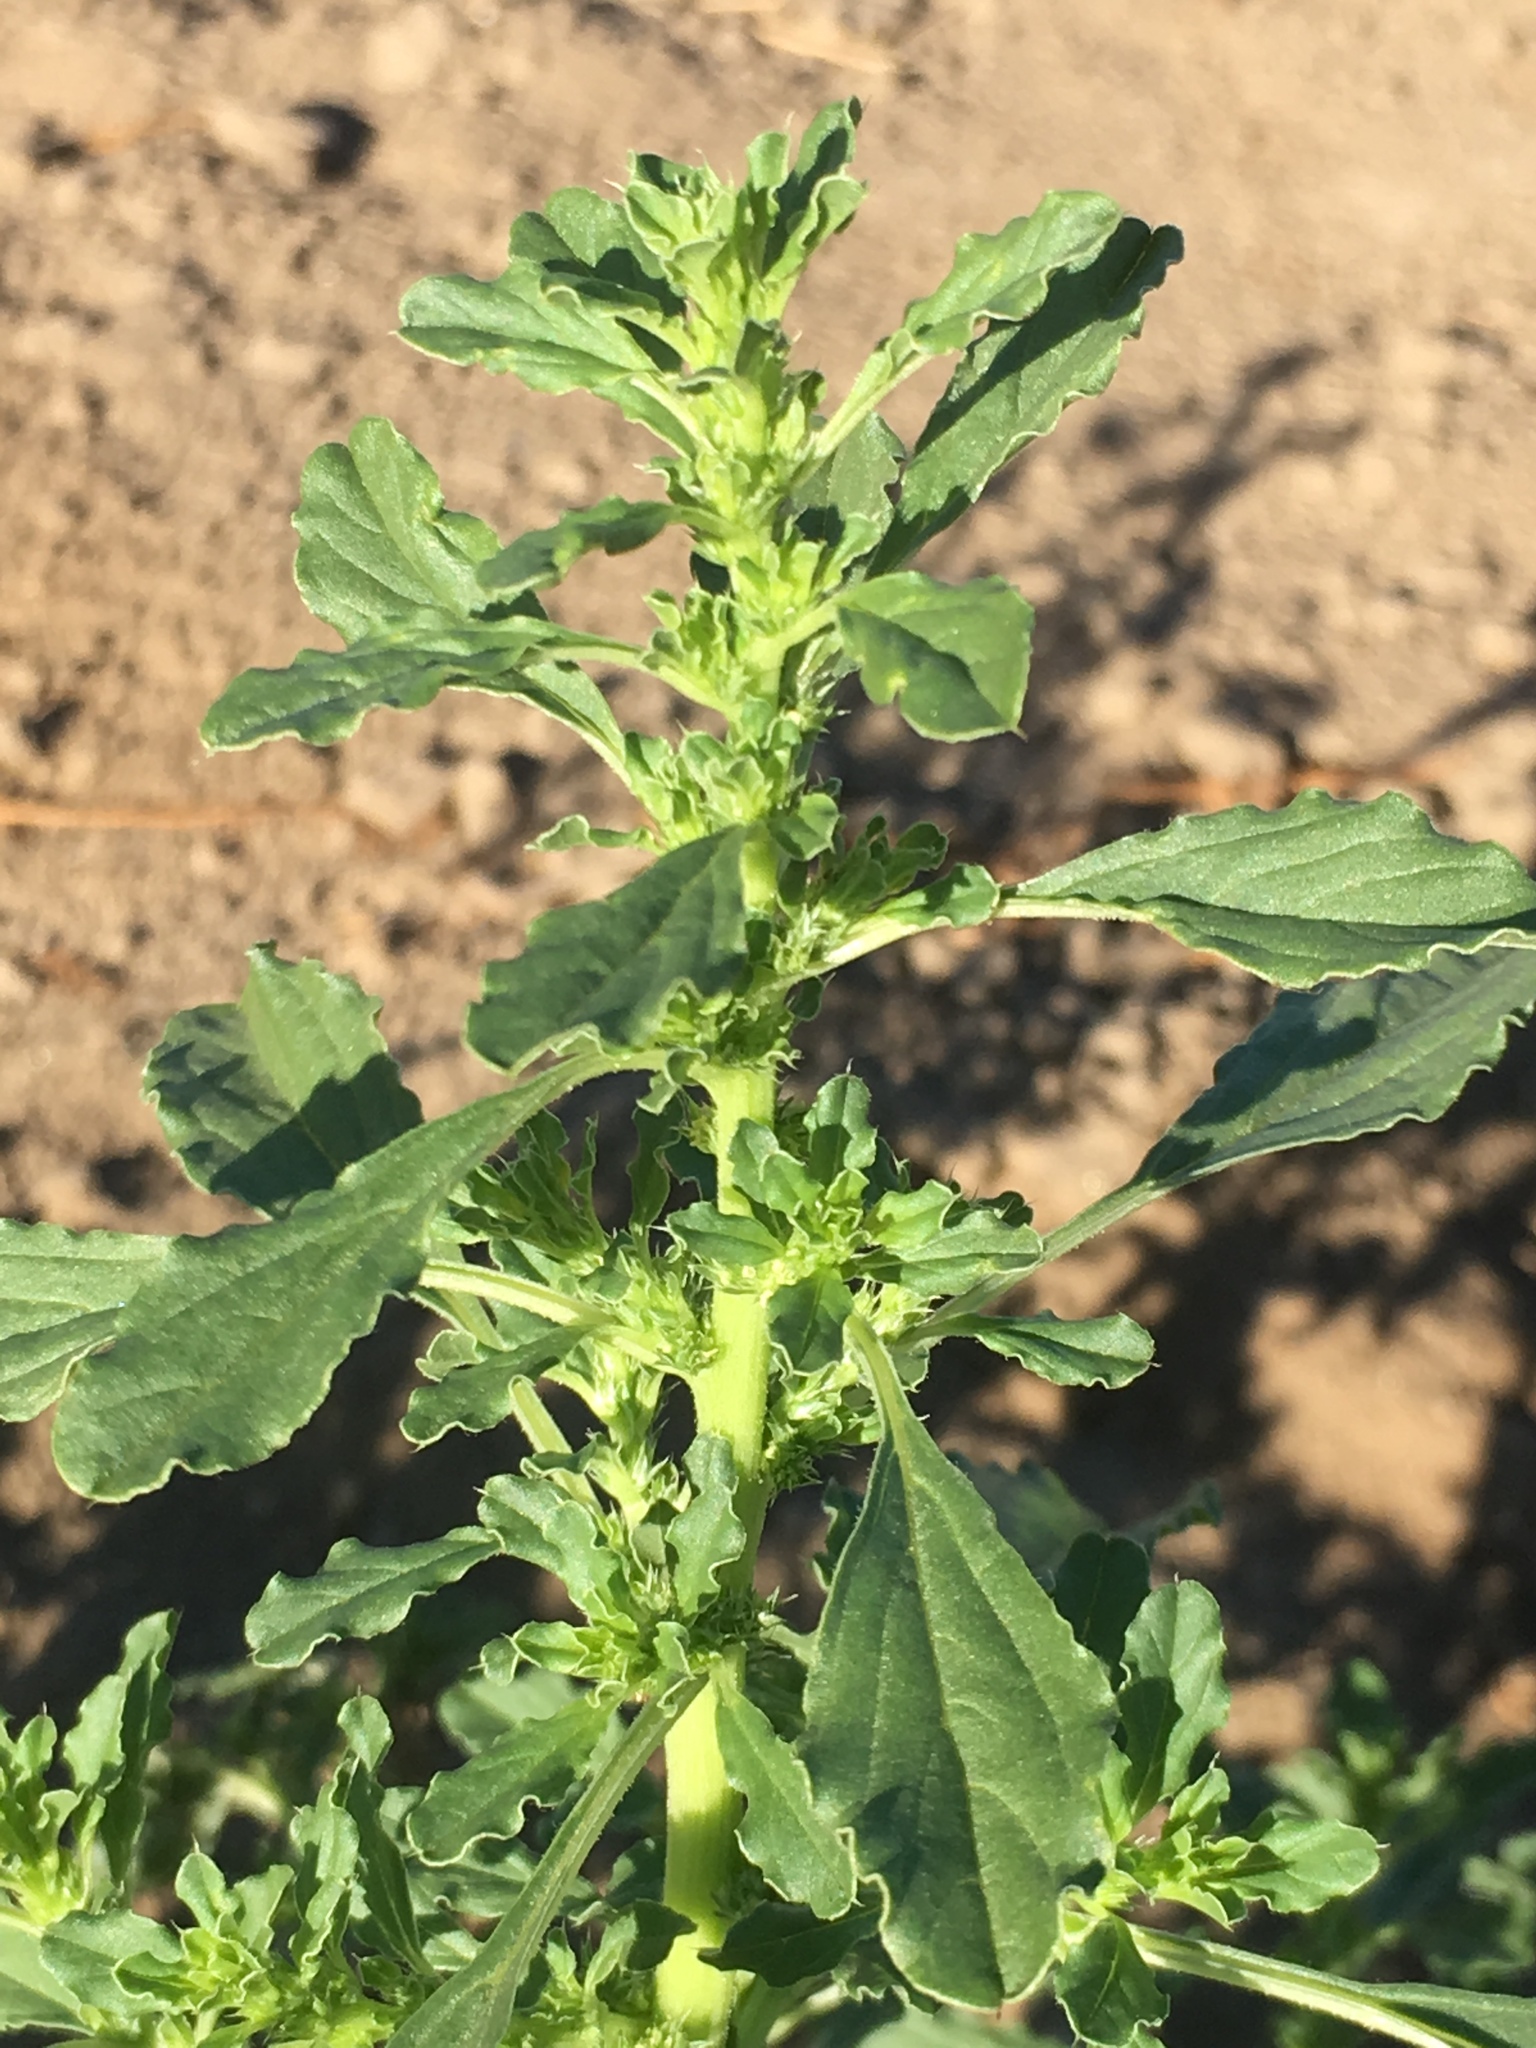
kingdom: Plantae
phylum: Tracheophyta
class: Magnoliopsida
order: Caryophyllales
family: Amaranthaceae
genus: Amaranthus
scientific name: Amaranthus albus
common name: White pigweed
